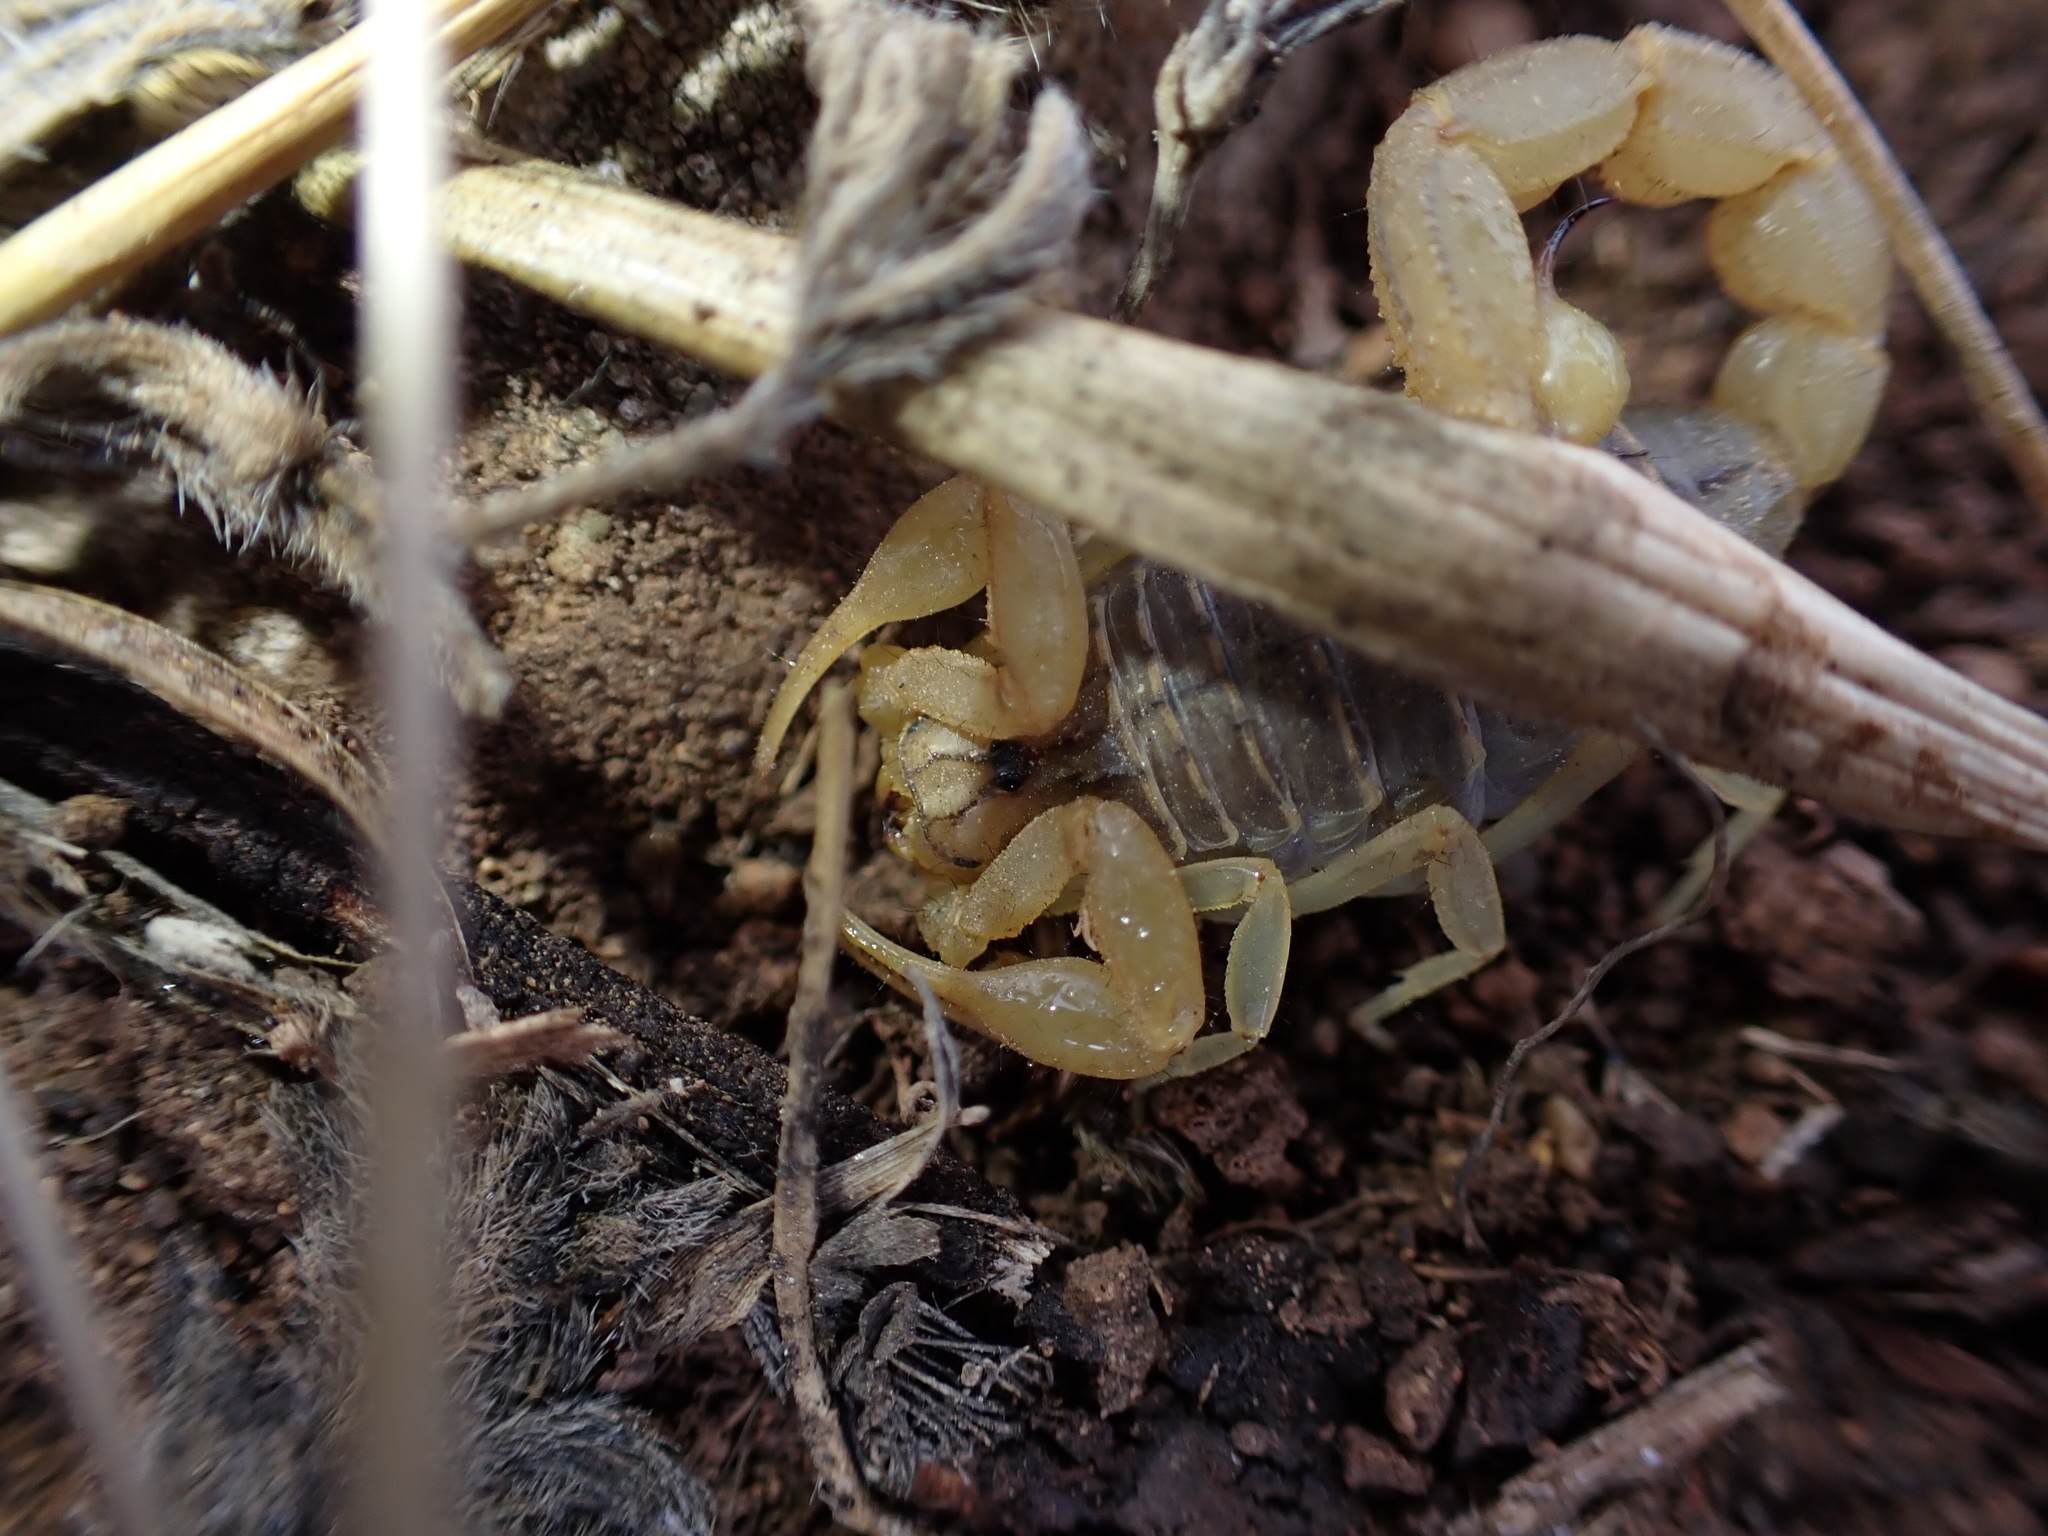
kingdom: Animalia
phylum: Arthropoda
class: Arachnida
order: Scorpiones
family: Buthidae
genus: Mesobuthus
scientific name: Mesobuthus phillipsi
